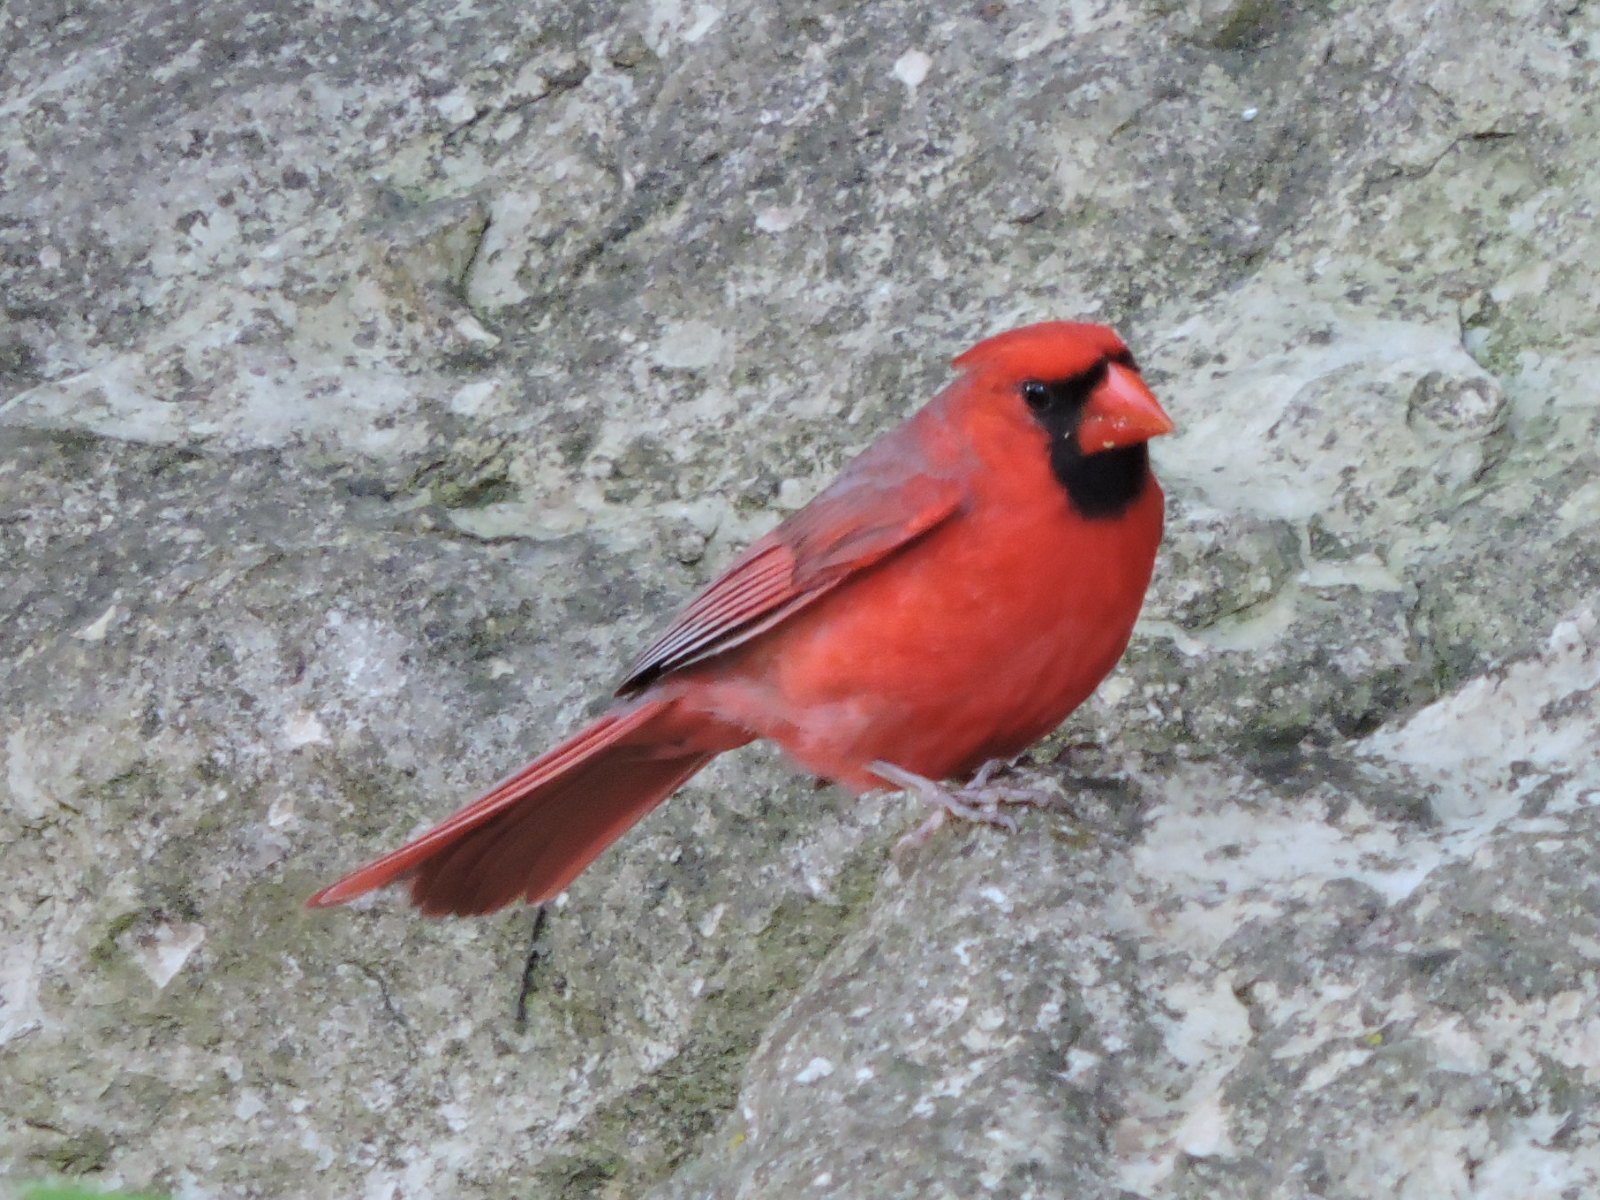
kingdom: Animalia
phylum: Chordata
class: Aves
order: Passeriformes
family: Cardinalidae
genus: Cardinalis
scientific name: Cardinalis cardinalis
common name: Northern cardinal
